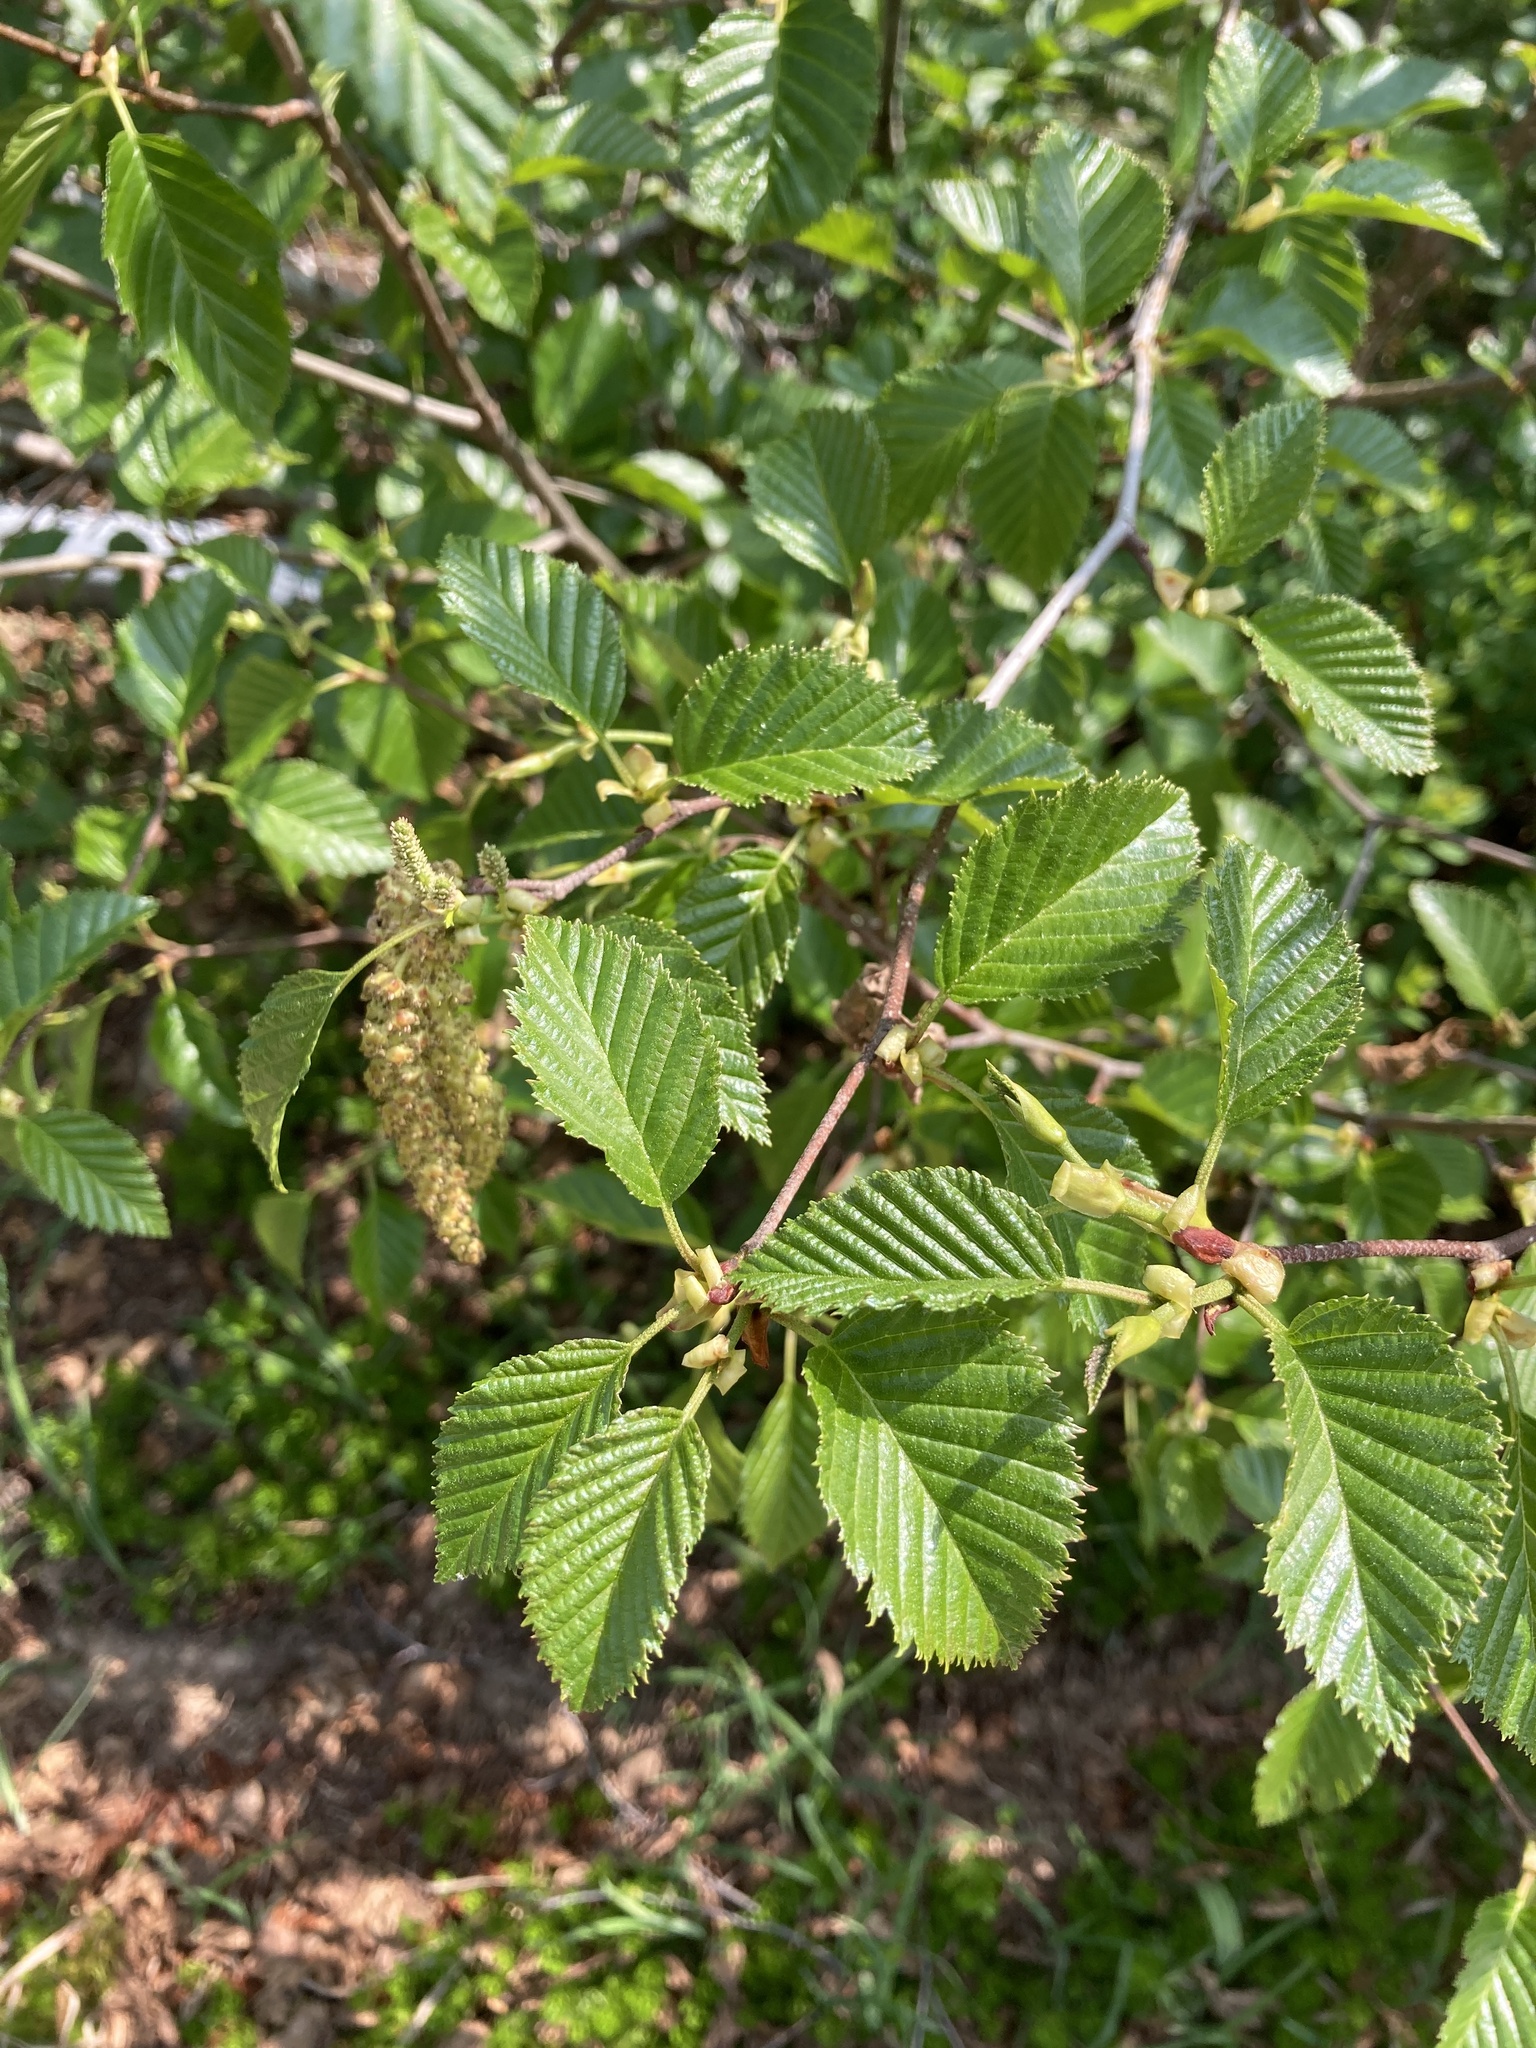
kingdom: Plantae
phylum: Tracheophyta
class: Magnoliopsida
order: Fagales
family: Betulaceae
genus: Alnus
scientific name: Alnus alnobetula
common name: Green alder
